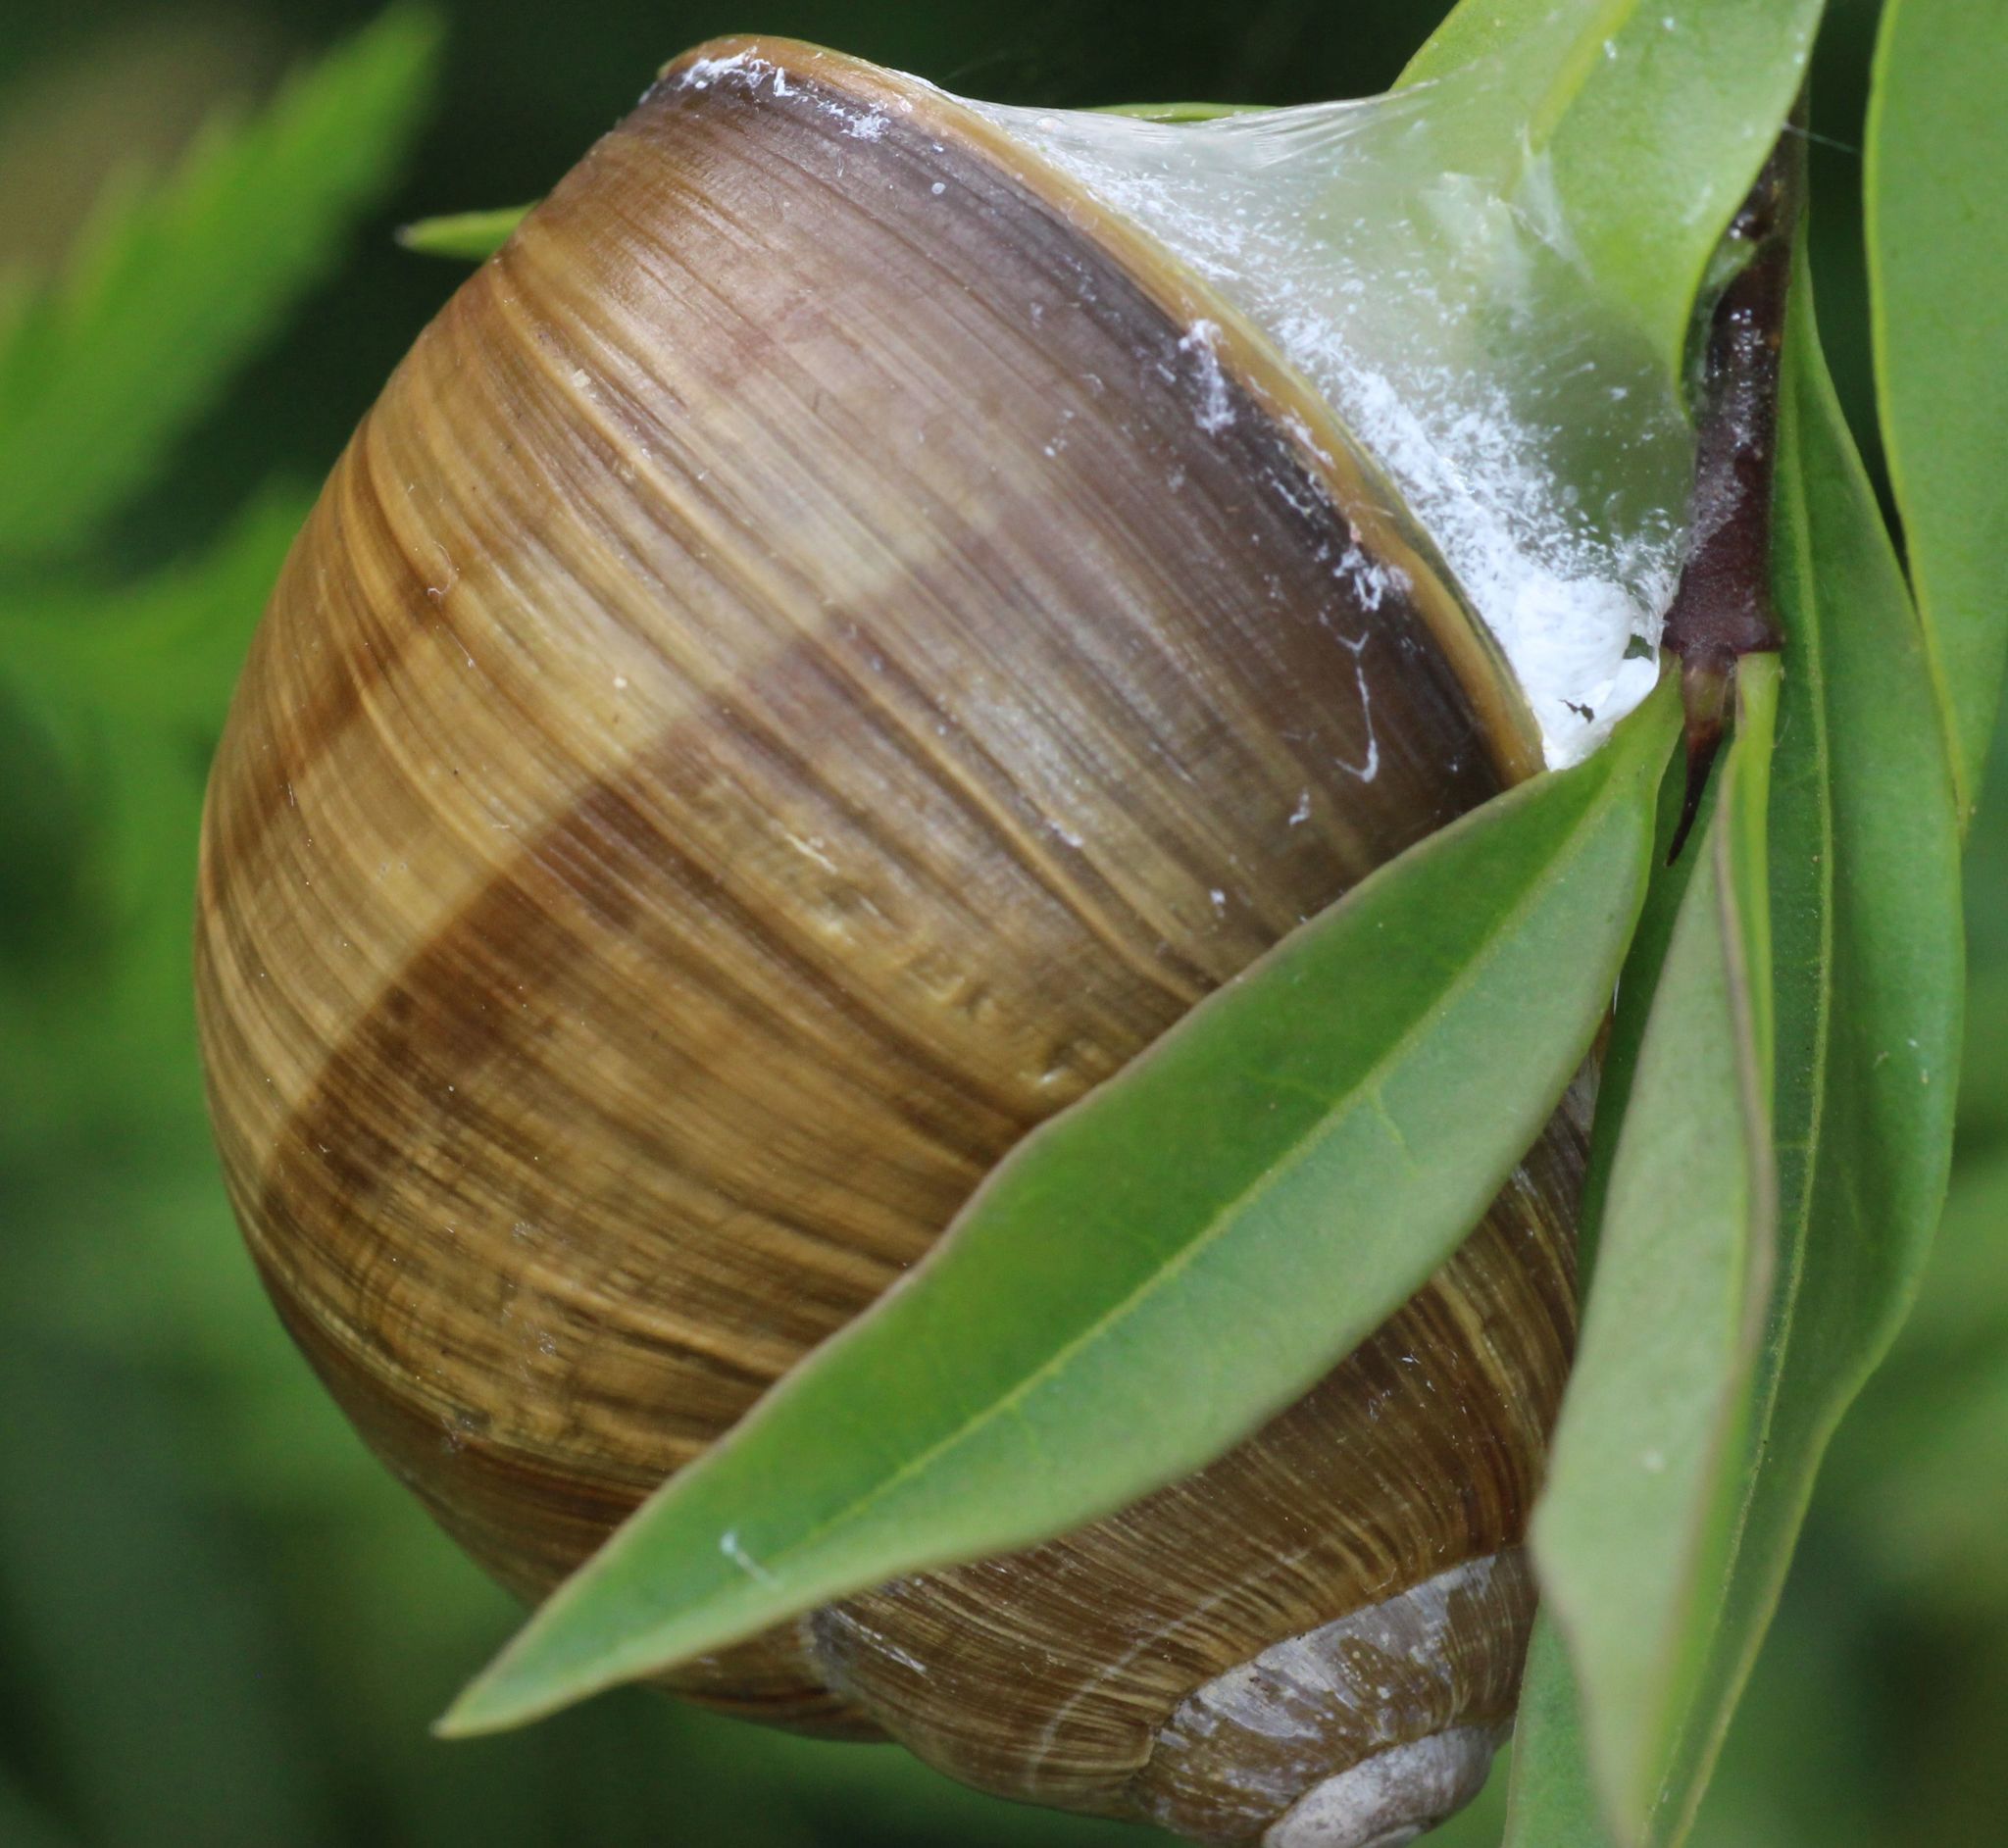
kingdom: Animalia
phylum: Mollusca
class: Gastropoda
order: Stylommatophora
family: Helicidae
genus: Helix
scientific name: Helix pomatia
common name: Roman snail
